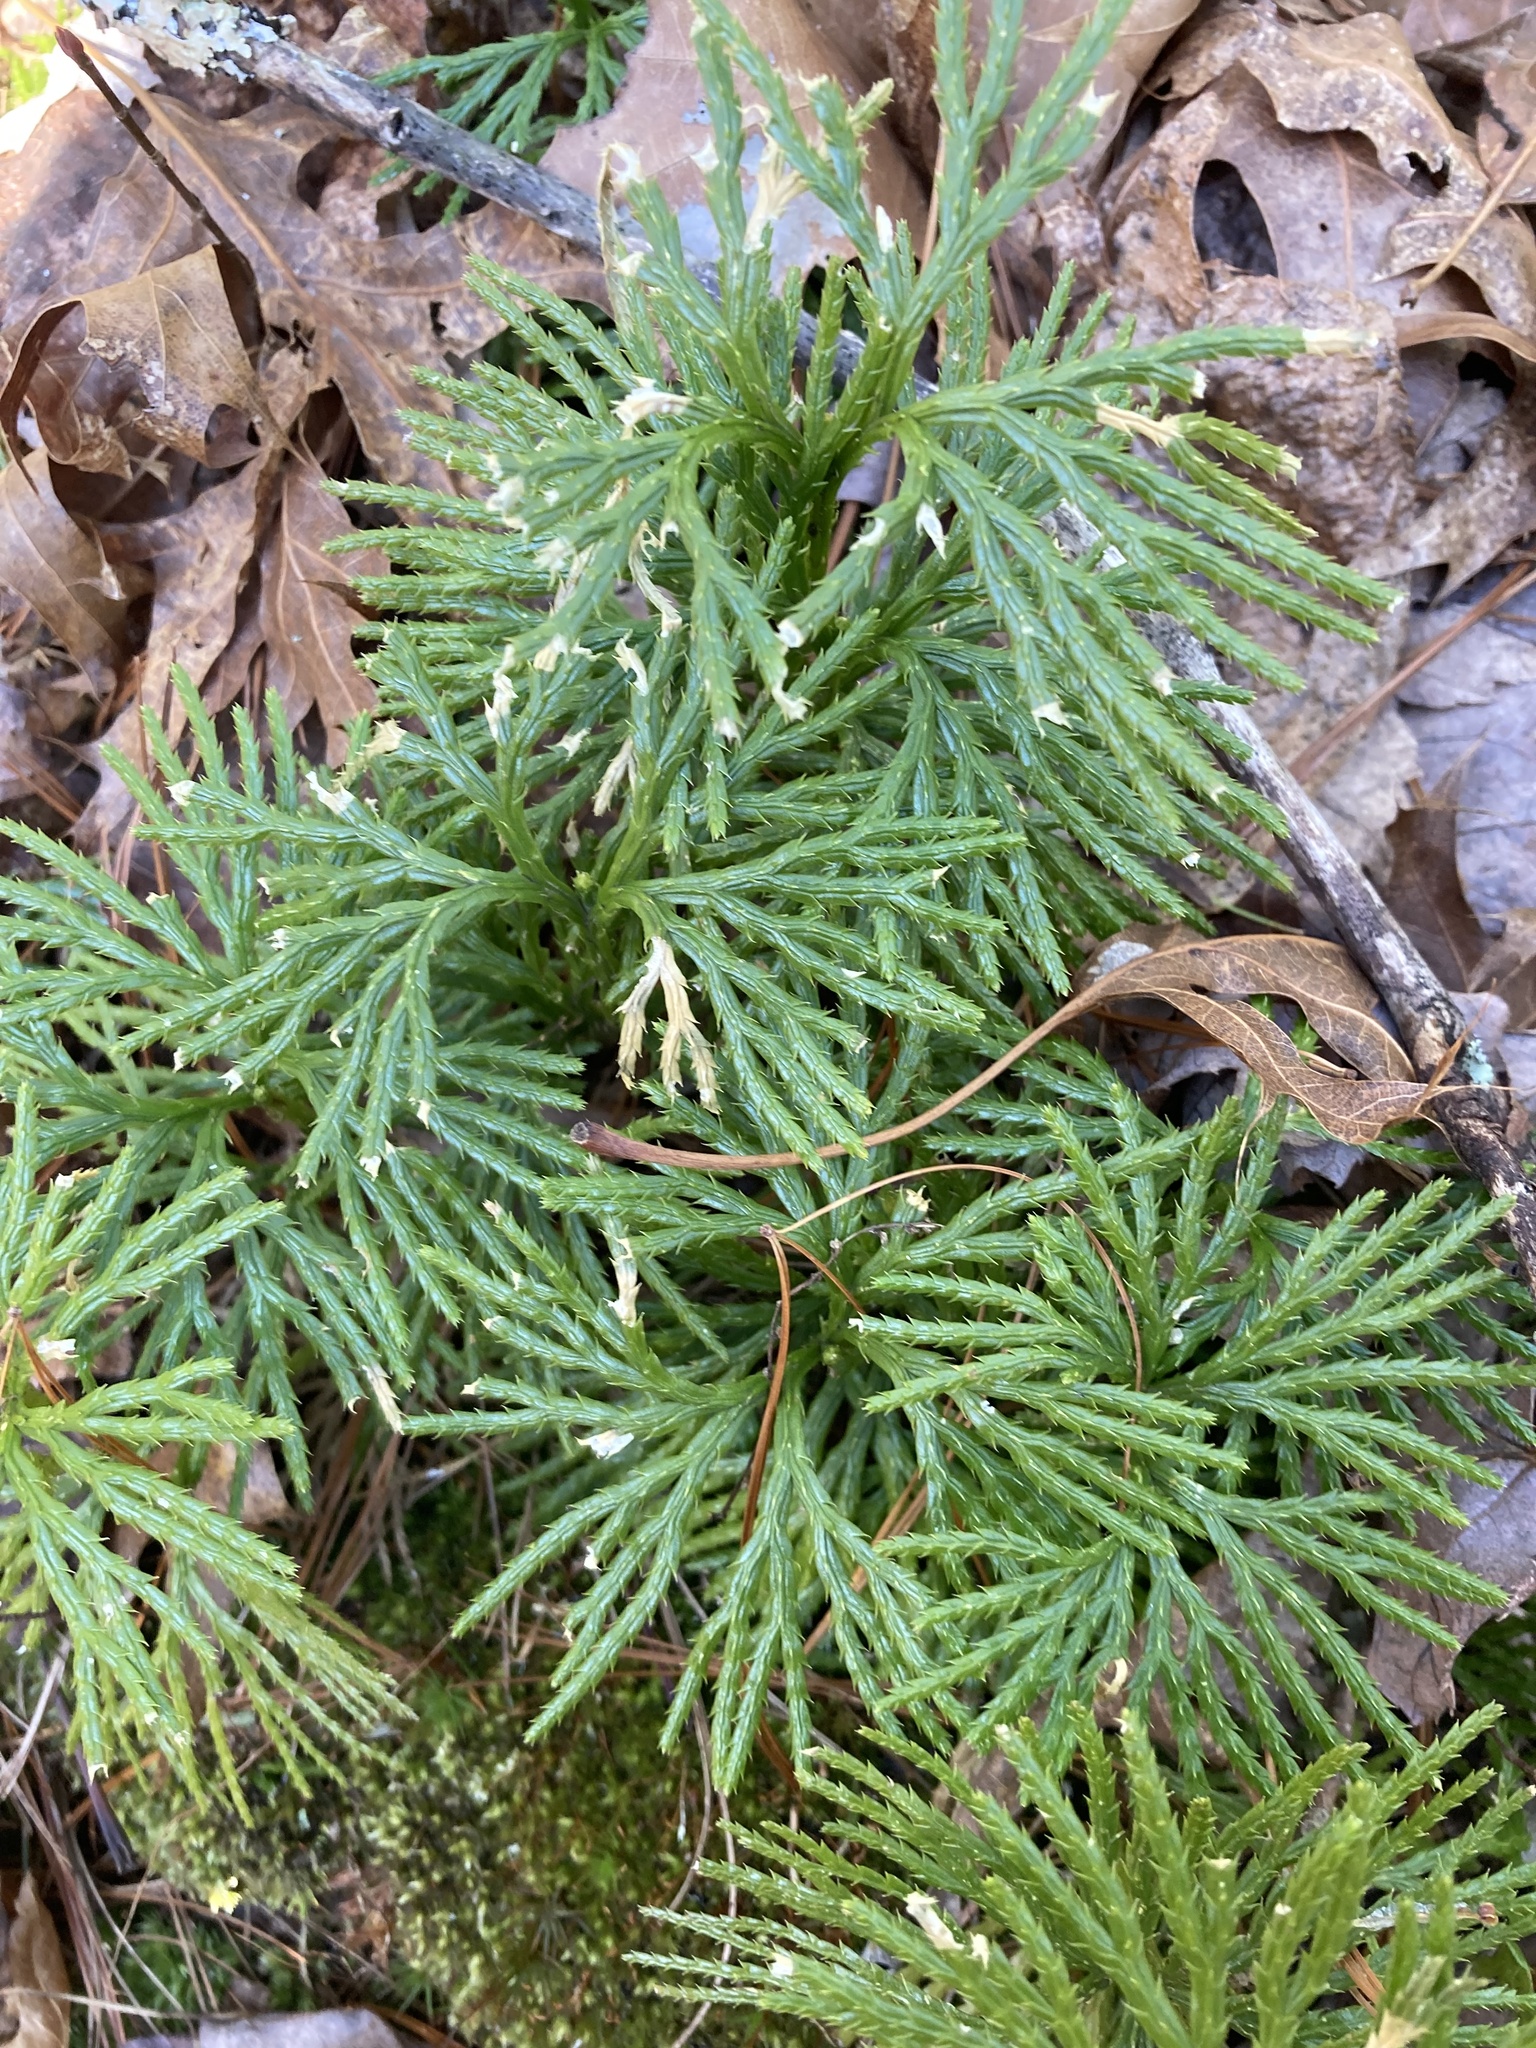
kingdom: Plantae
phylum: Tracheophyta
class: Lycopodiopsida
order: Lycopodiales
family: Lycopodiaceae
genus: Diphasiastrum
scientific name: Diphasiastrum digitatum
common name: Southern running-pine
